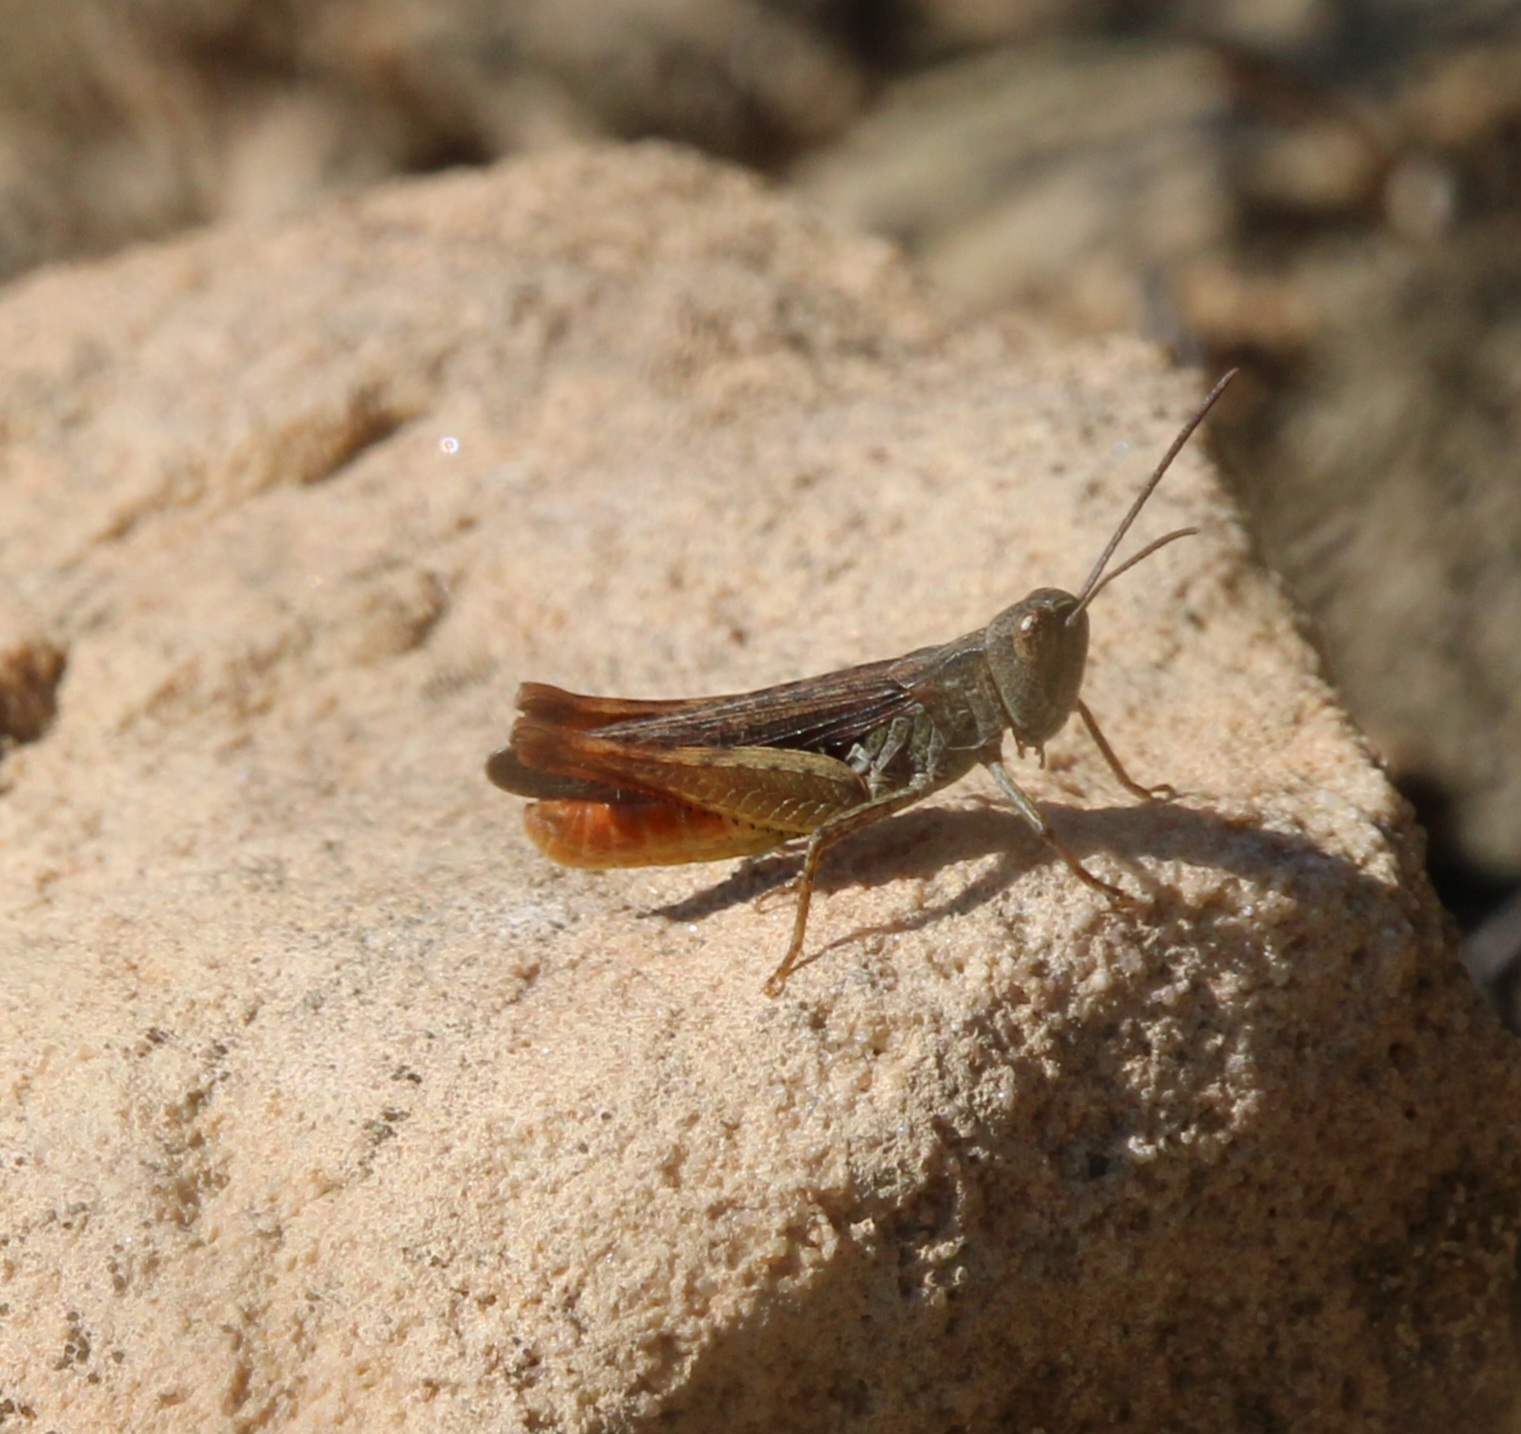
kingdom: Animalia
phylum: Arthropoda
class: Insecta
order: Orthoptera
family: Acrididae
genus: Chorthippus
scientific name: Chorthippus vagans
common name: Heath grasshopper
